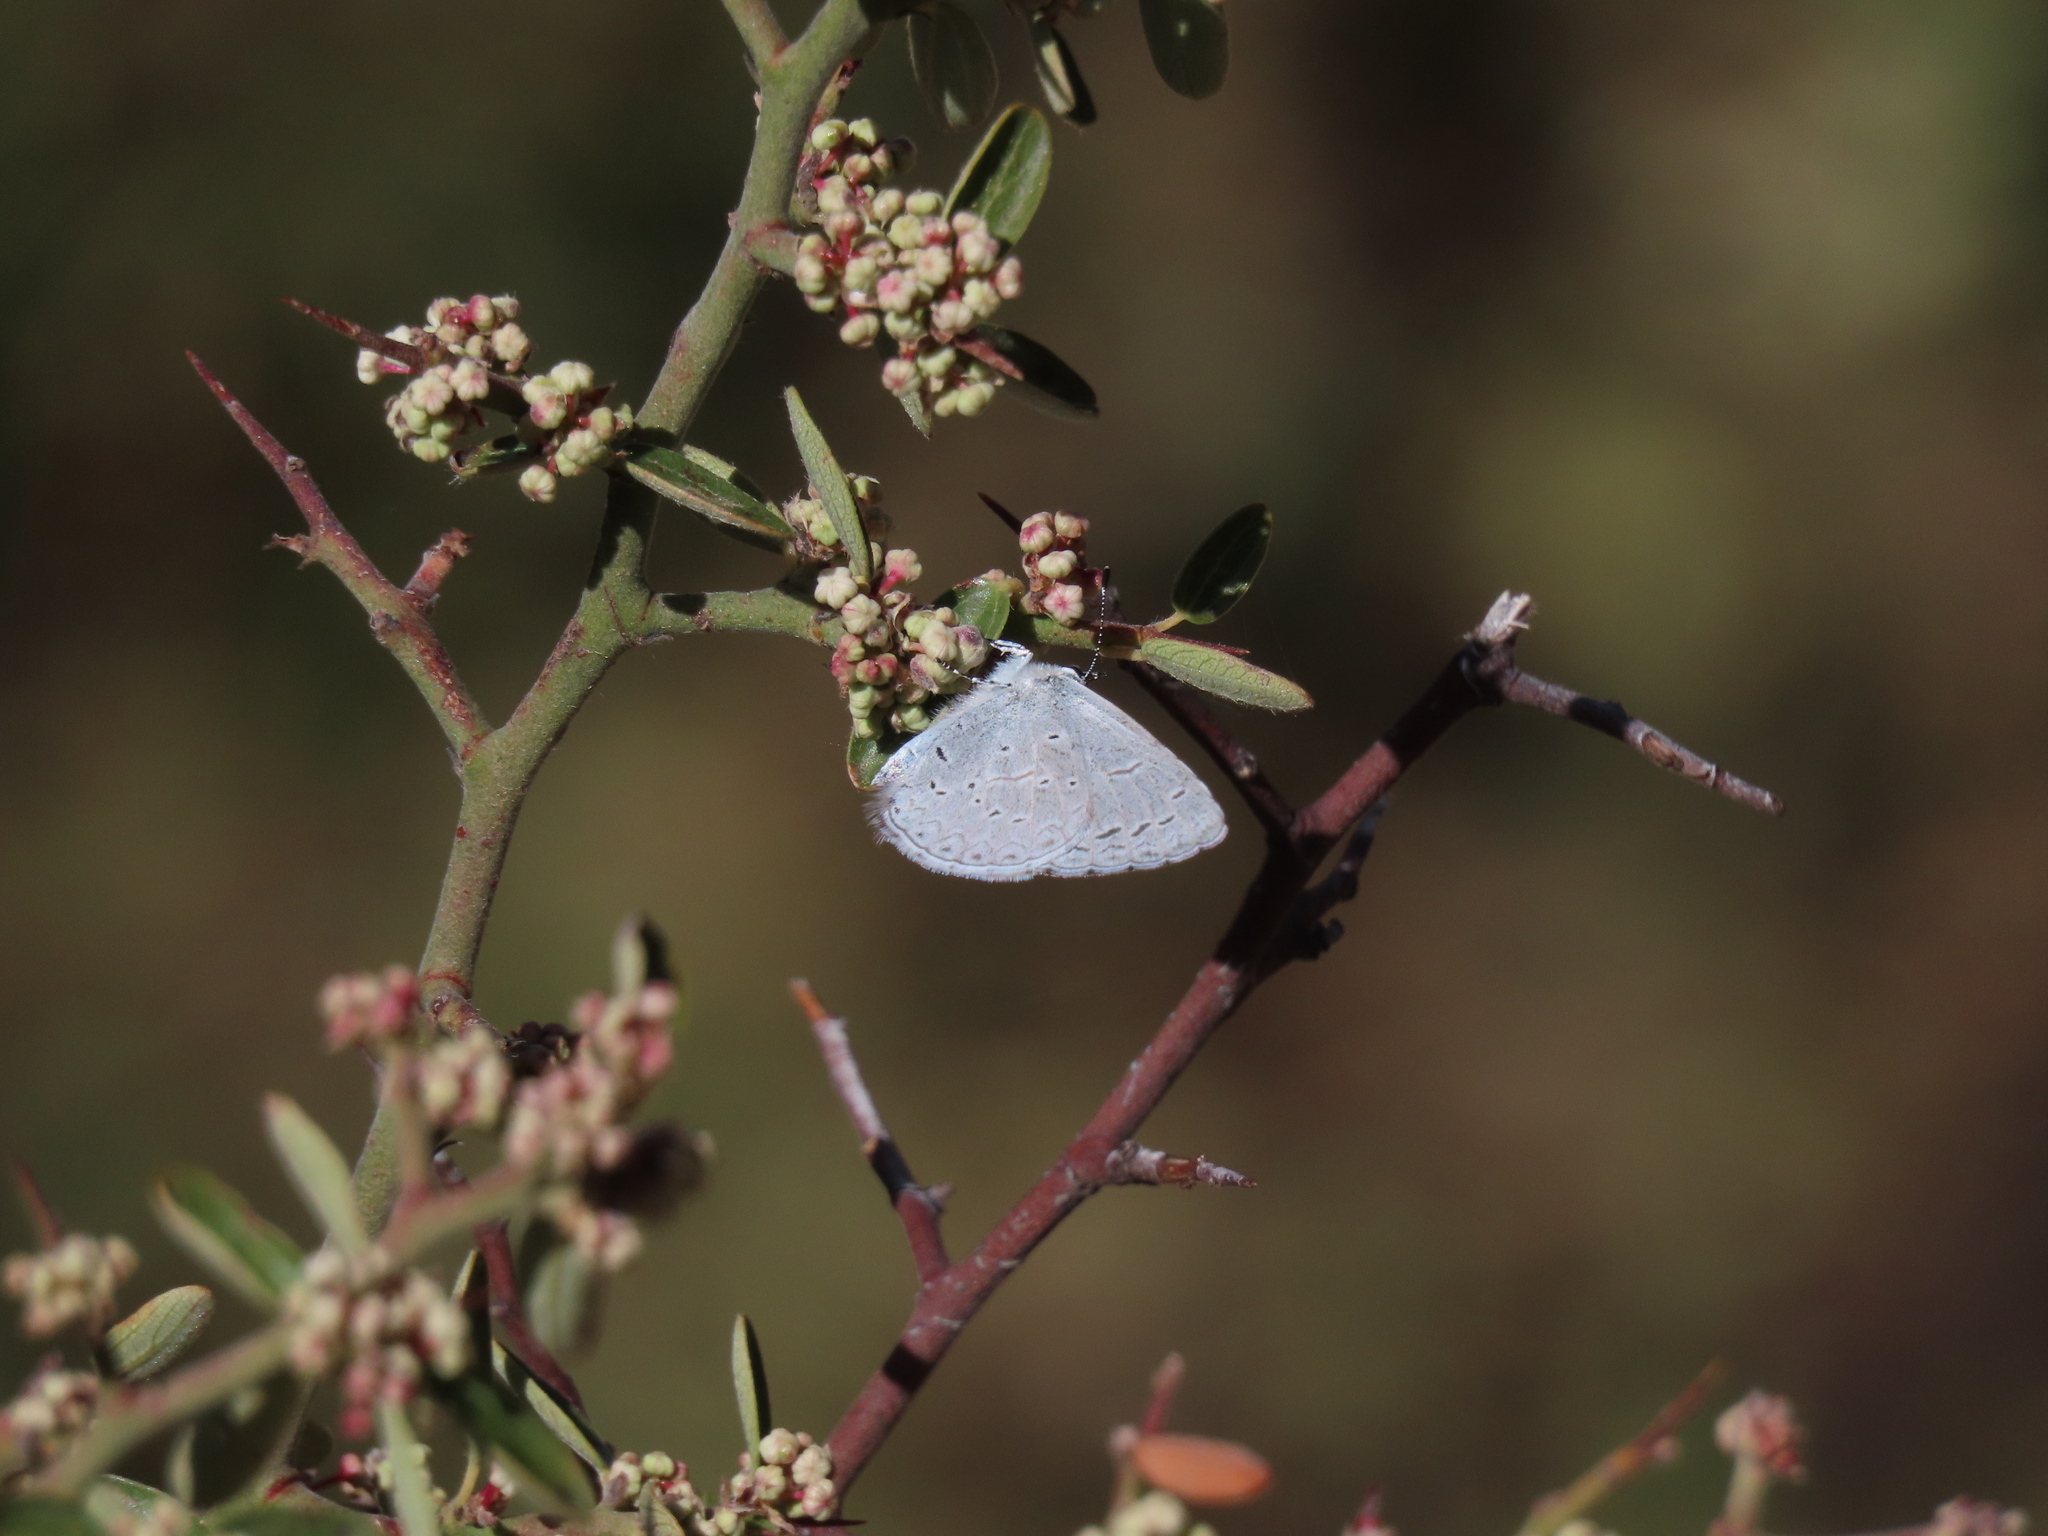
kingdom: Animalia
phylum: Arthropoda
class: Insecta
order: Lepidoptera
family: Lycaenidae
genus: Celastrina
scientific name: Celastrina ladon
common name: Spring azure
